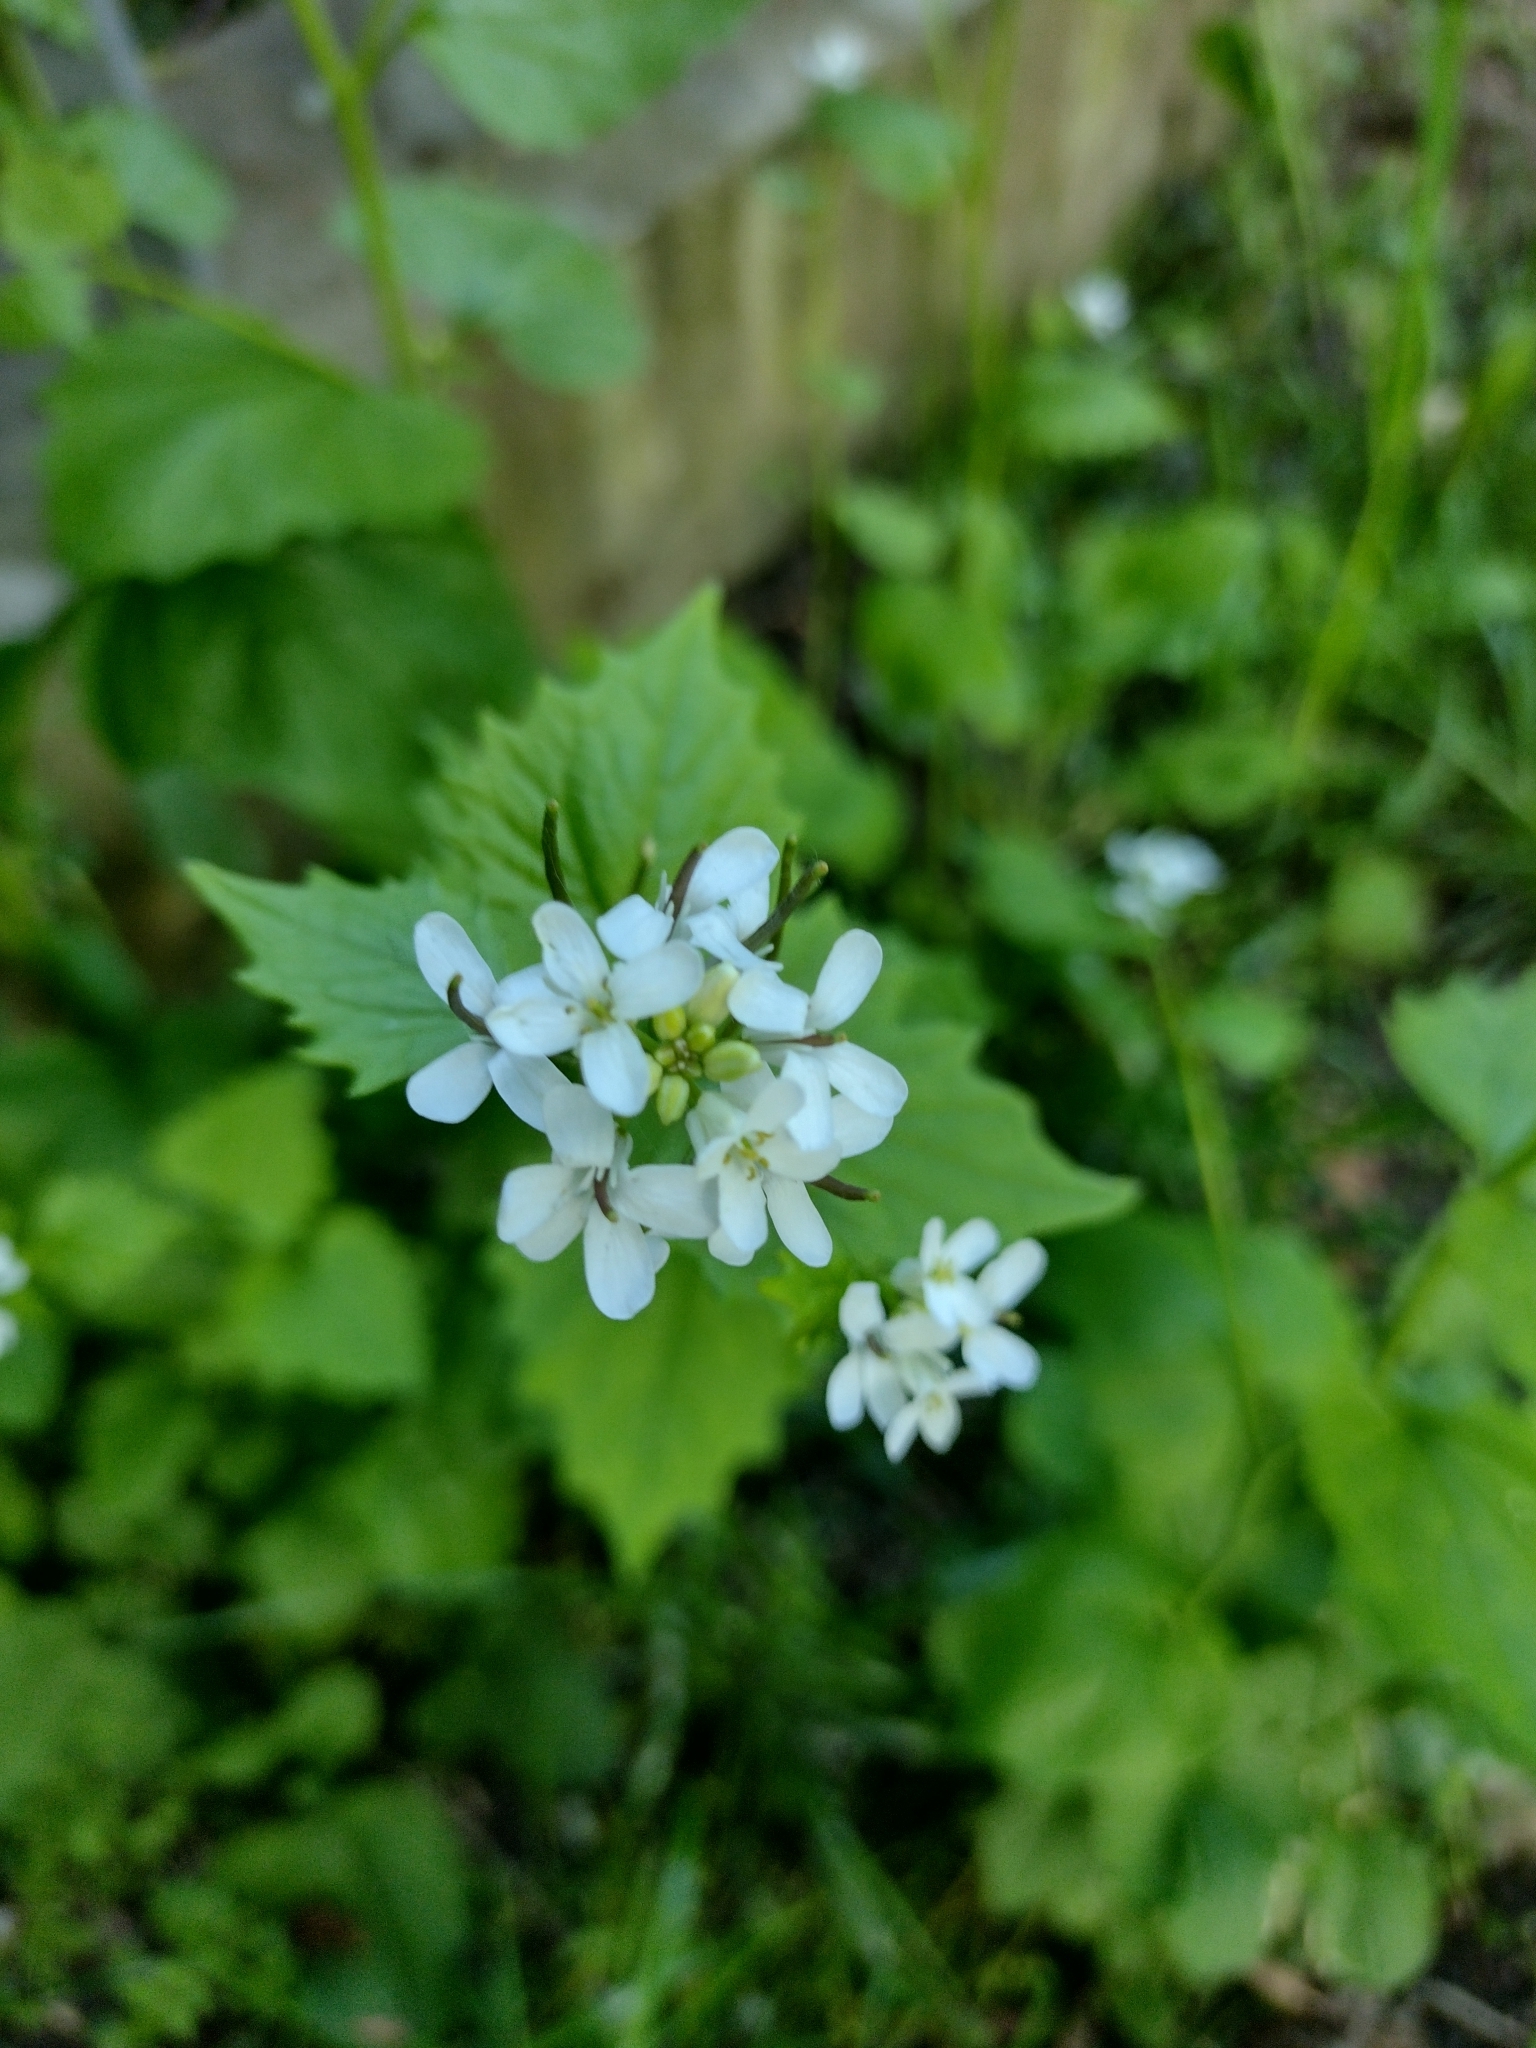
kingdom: Plantae
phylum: Tracheophyta
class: Magnoliopsida
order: Brassicales
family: Brassicaceae
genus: Alliaria
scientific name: Alliaria petiolata
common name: Garlic mustard
